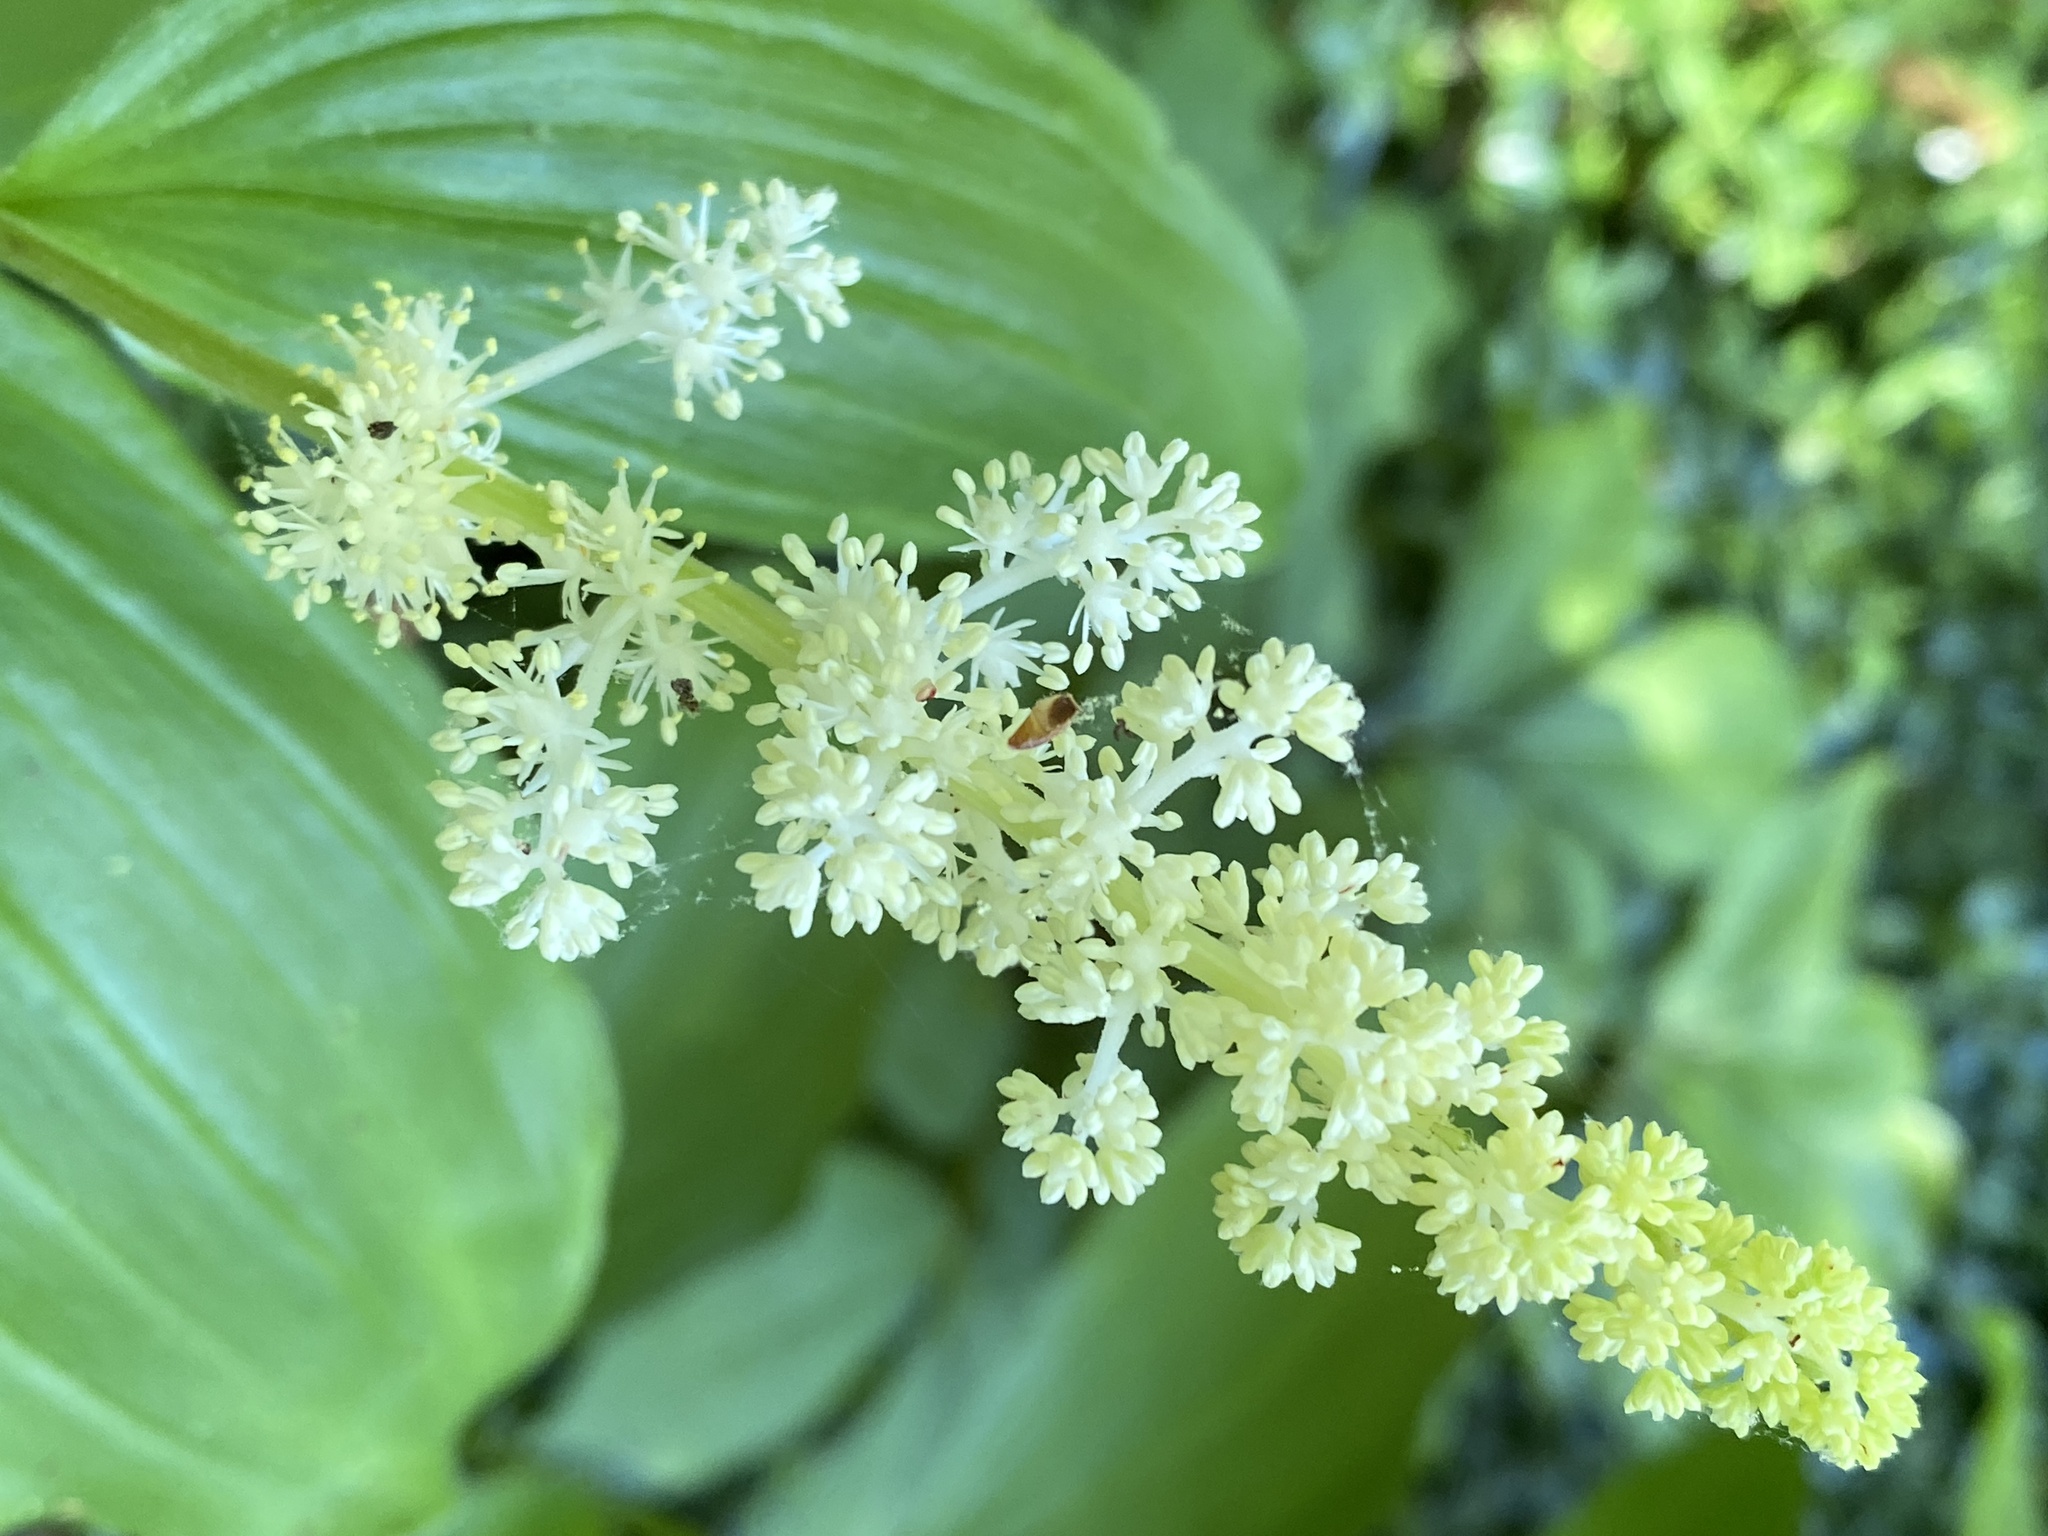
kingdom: Plantae
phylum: Tracheophyta
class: Liliopsida
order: Asparagales
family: Asparagaceae
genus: Maianthemum
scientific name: Maianthemum racemosum
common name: False spikenard
